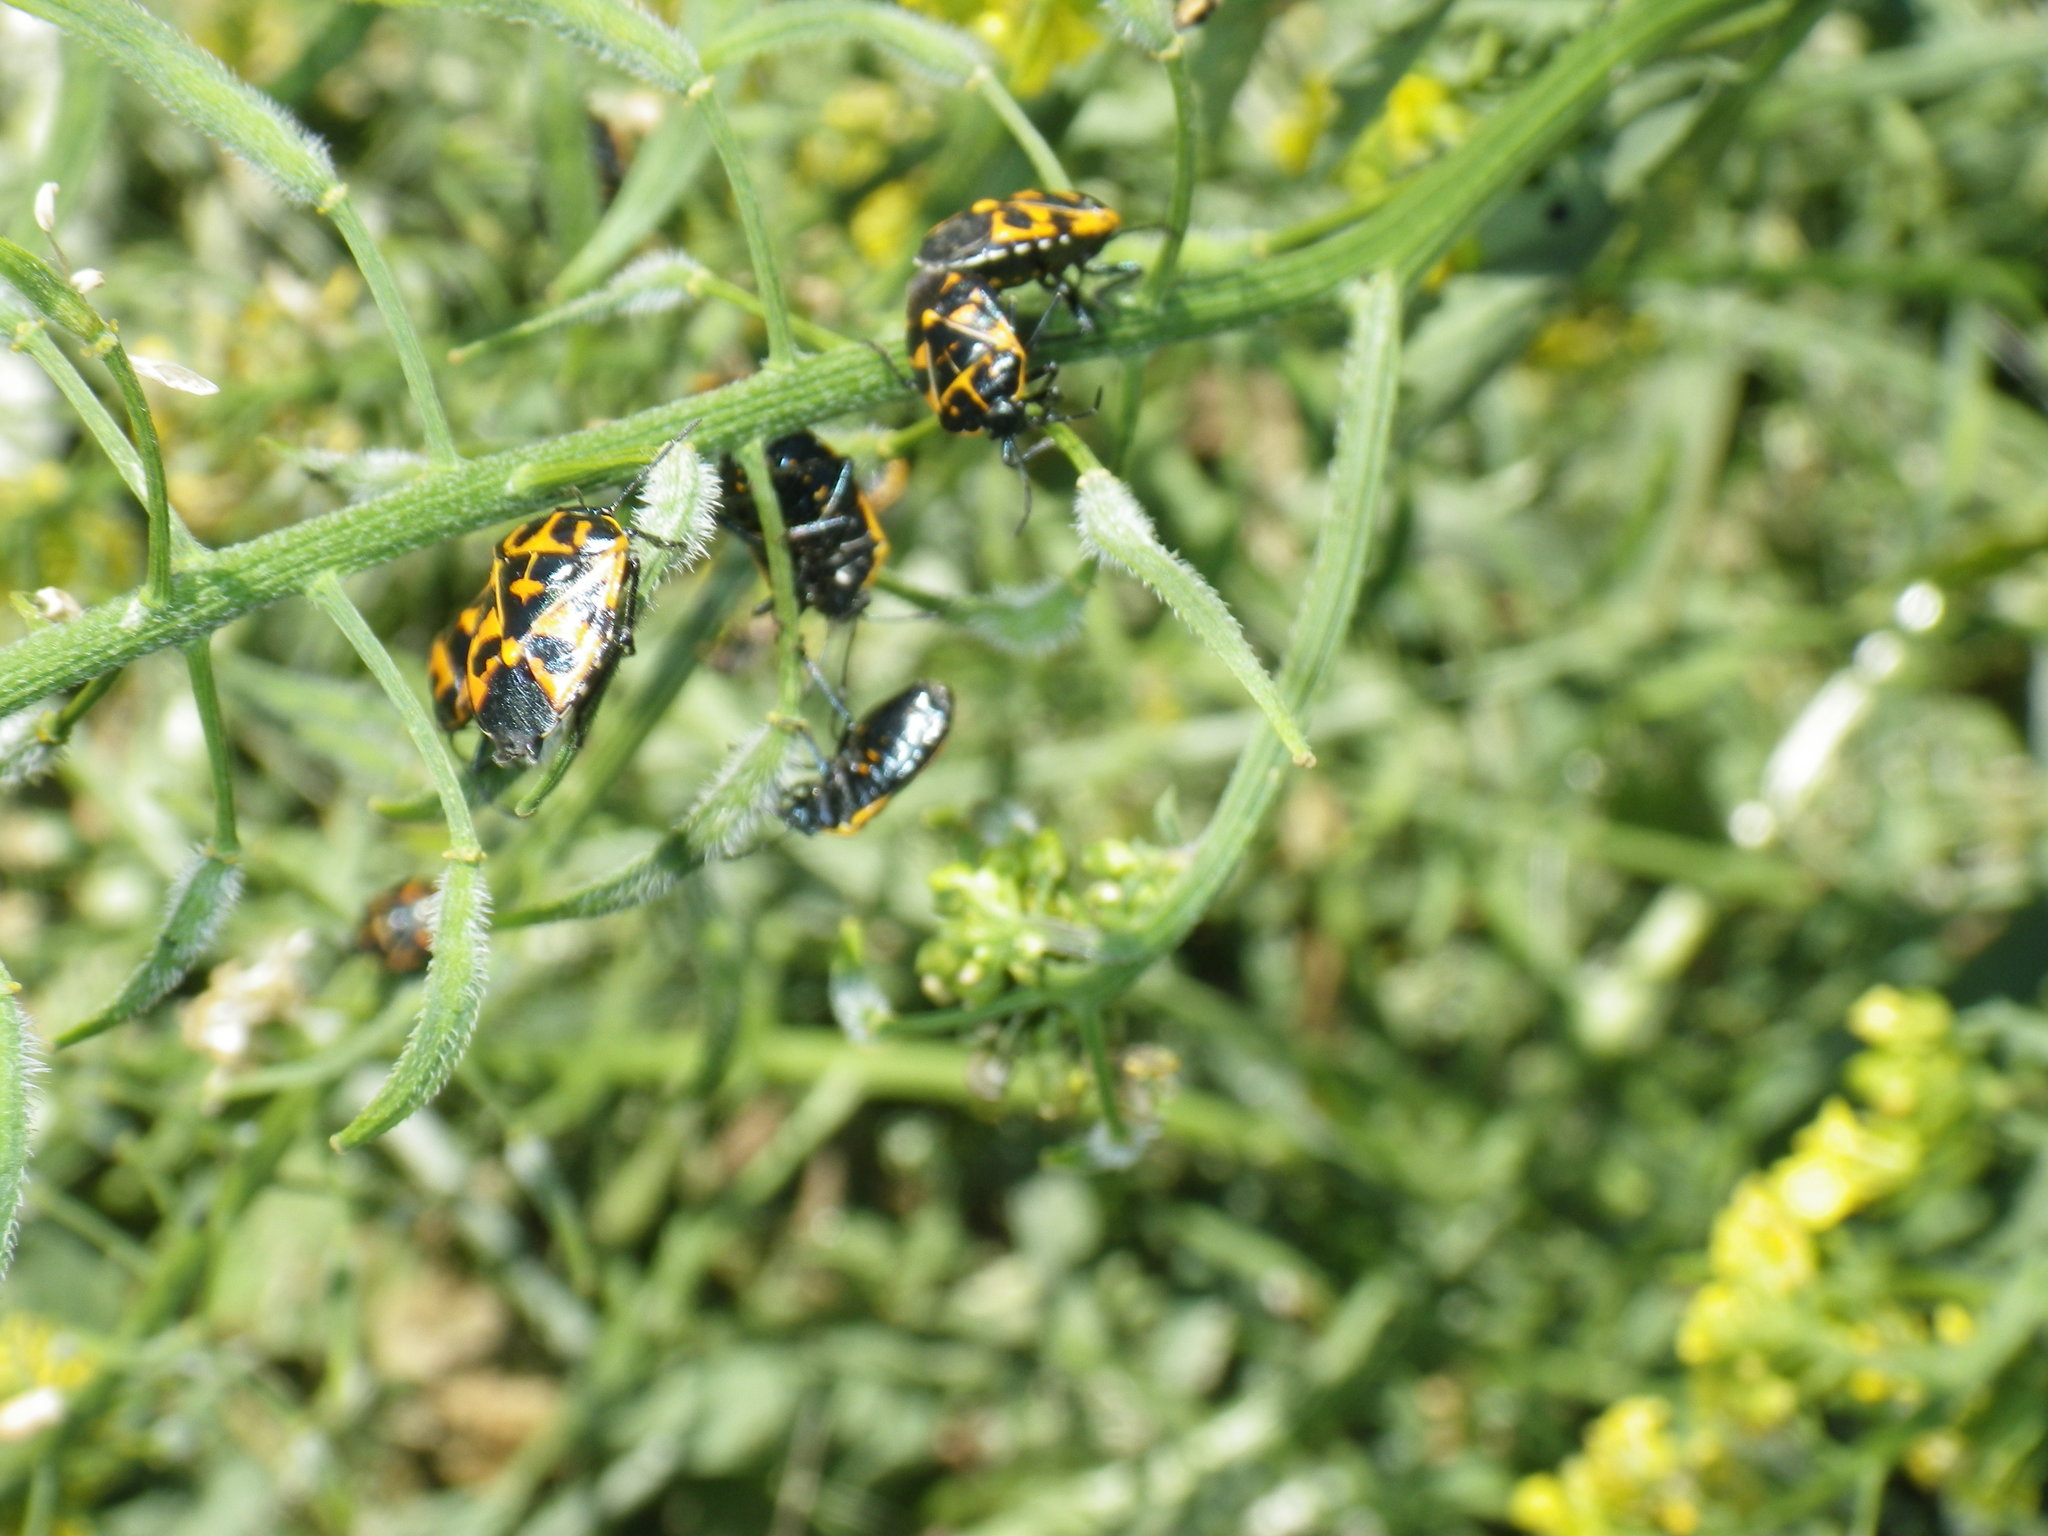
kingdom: Animalia
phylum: Arthropoda
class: Insecta
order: Hemiptera
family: Pentatomidae
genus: Murgantia
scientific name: Murgantia histrionica
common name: Harlequin bug
